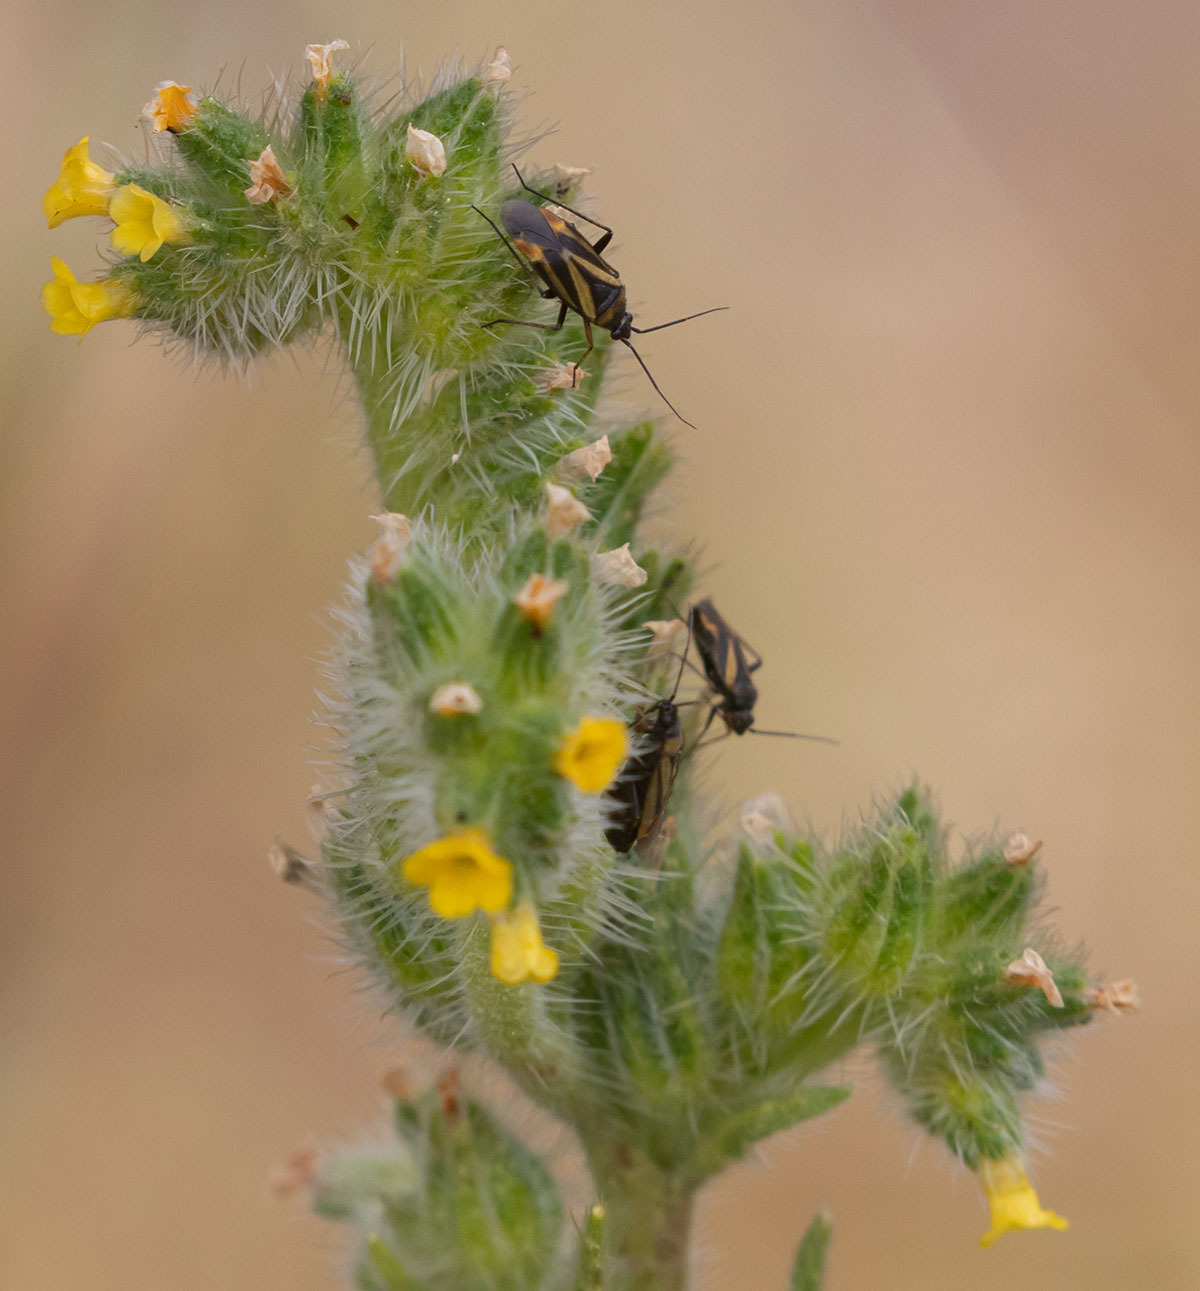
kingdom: Animalia
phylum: Arthropoda
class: Insecta
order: Hemiptera
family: Miridae
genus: Plagiognathus
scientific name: Plagiognathus moerens
